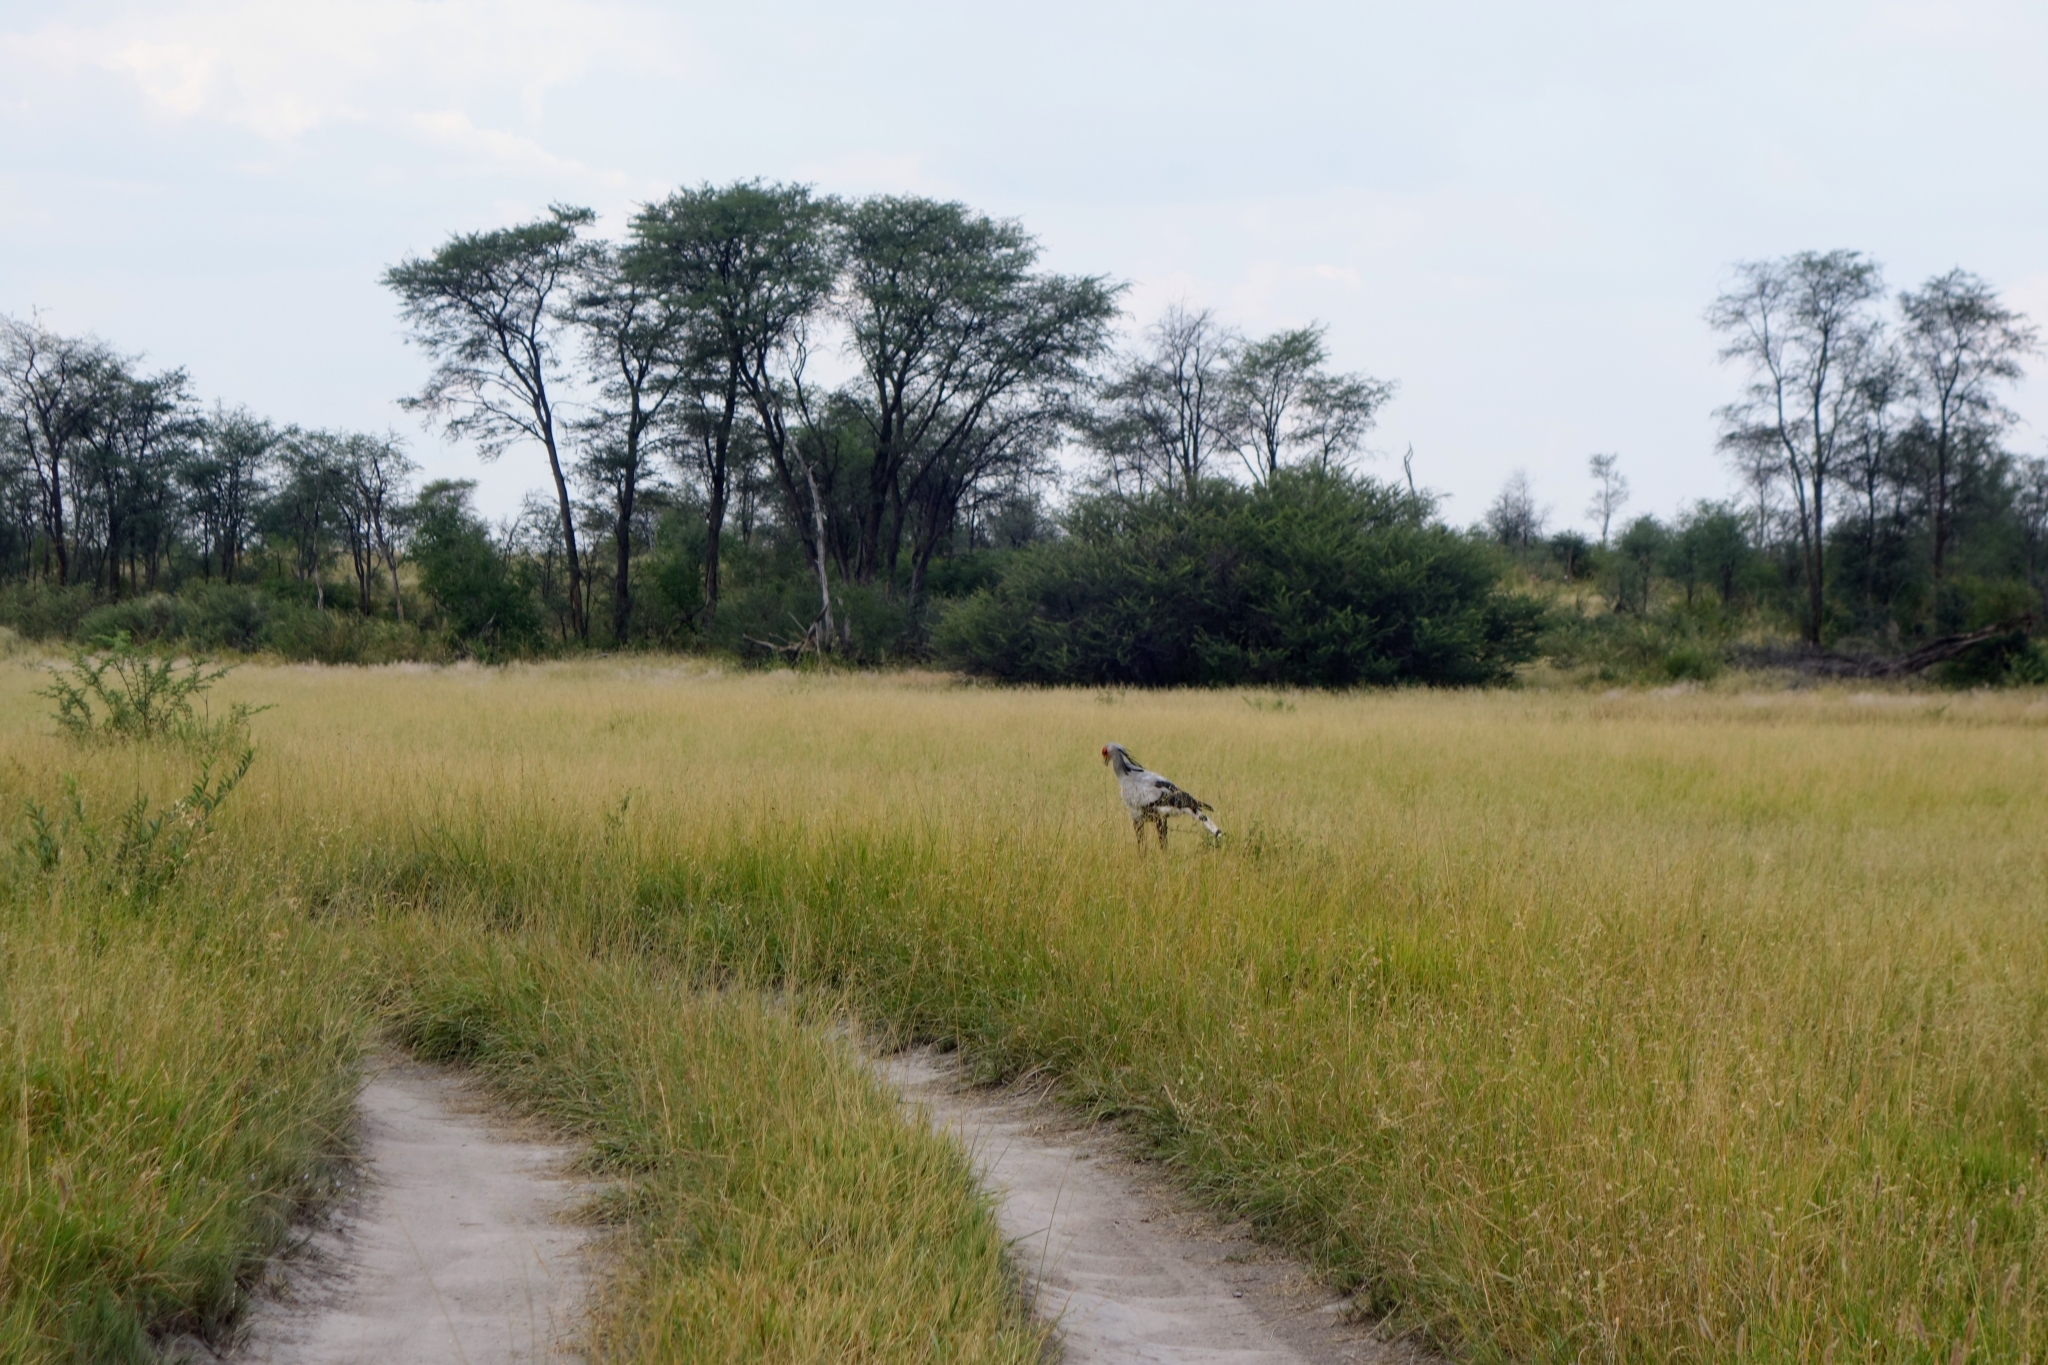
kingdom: Animalia
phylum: Chordata
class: Aves
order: Accipitriformes
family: Sagittariidae
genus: Sagittarius
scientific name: Sagittarius serpentarius
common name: Secretarybird
